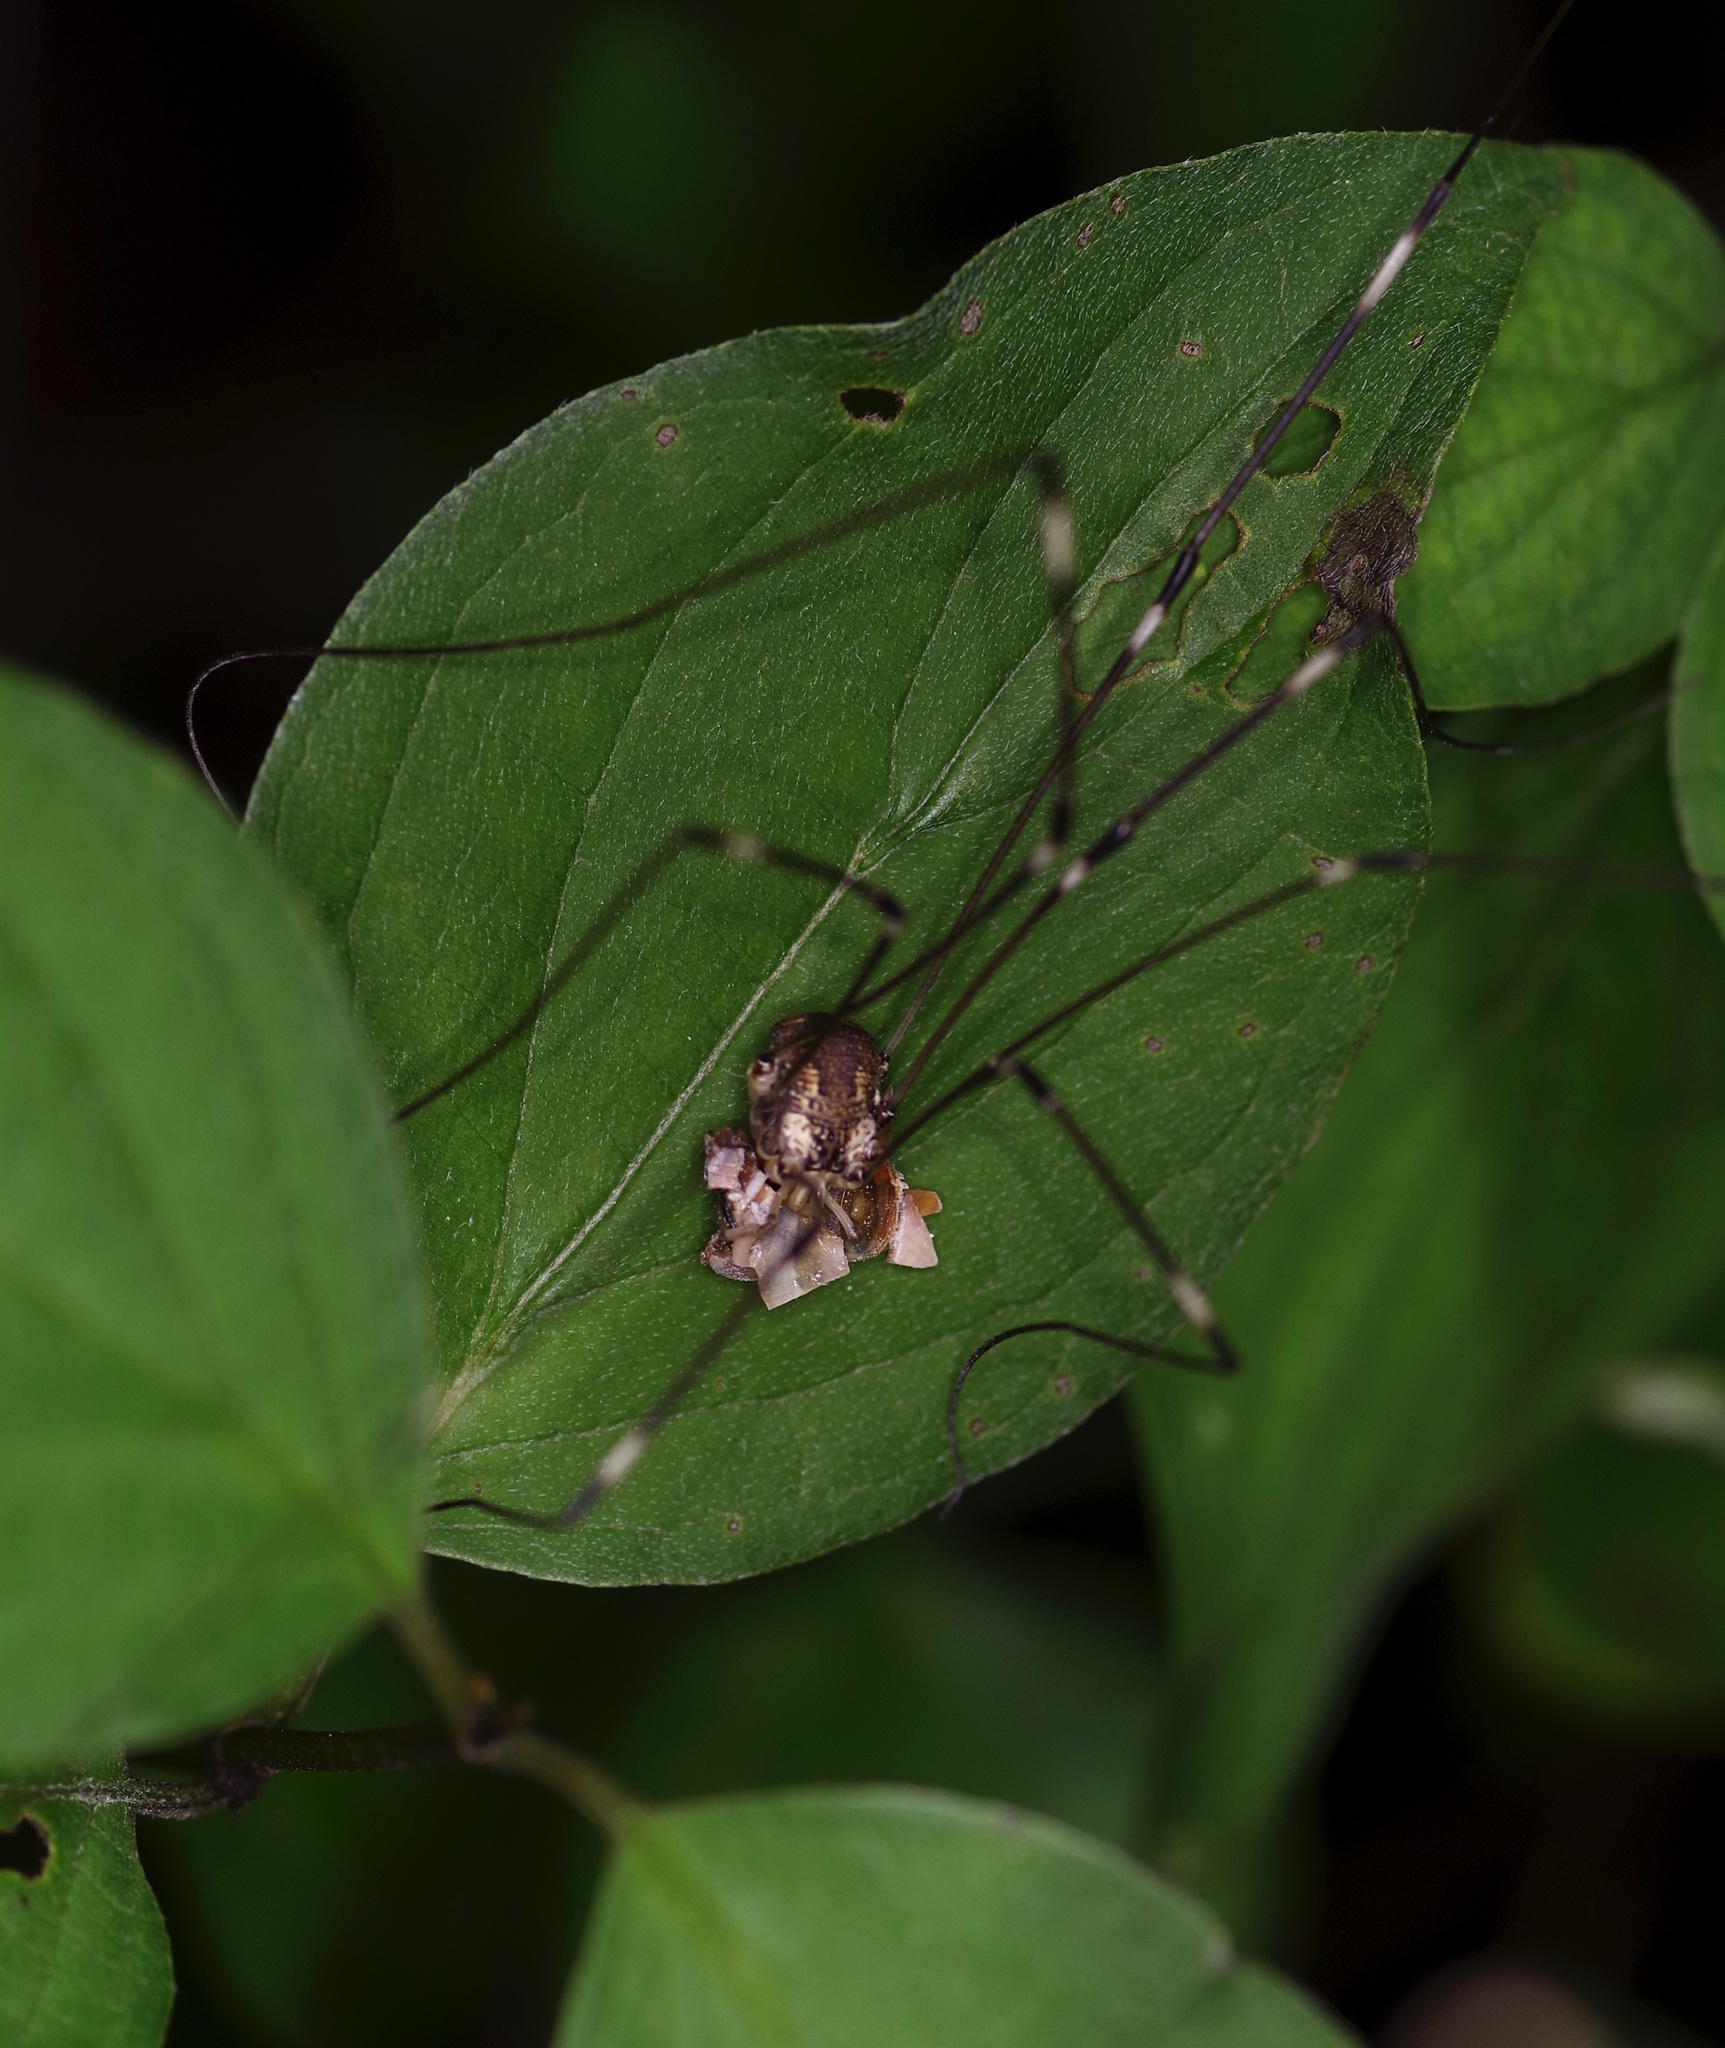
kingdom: Animalia
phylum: Arthropoda
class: Arachnida
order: Opiliones
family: Sclerosomatidae
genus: Leiobunum
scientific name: Leiobunum townsendi
